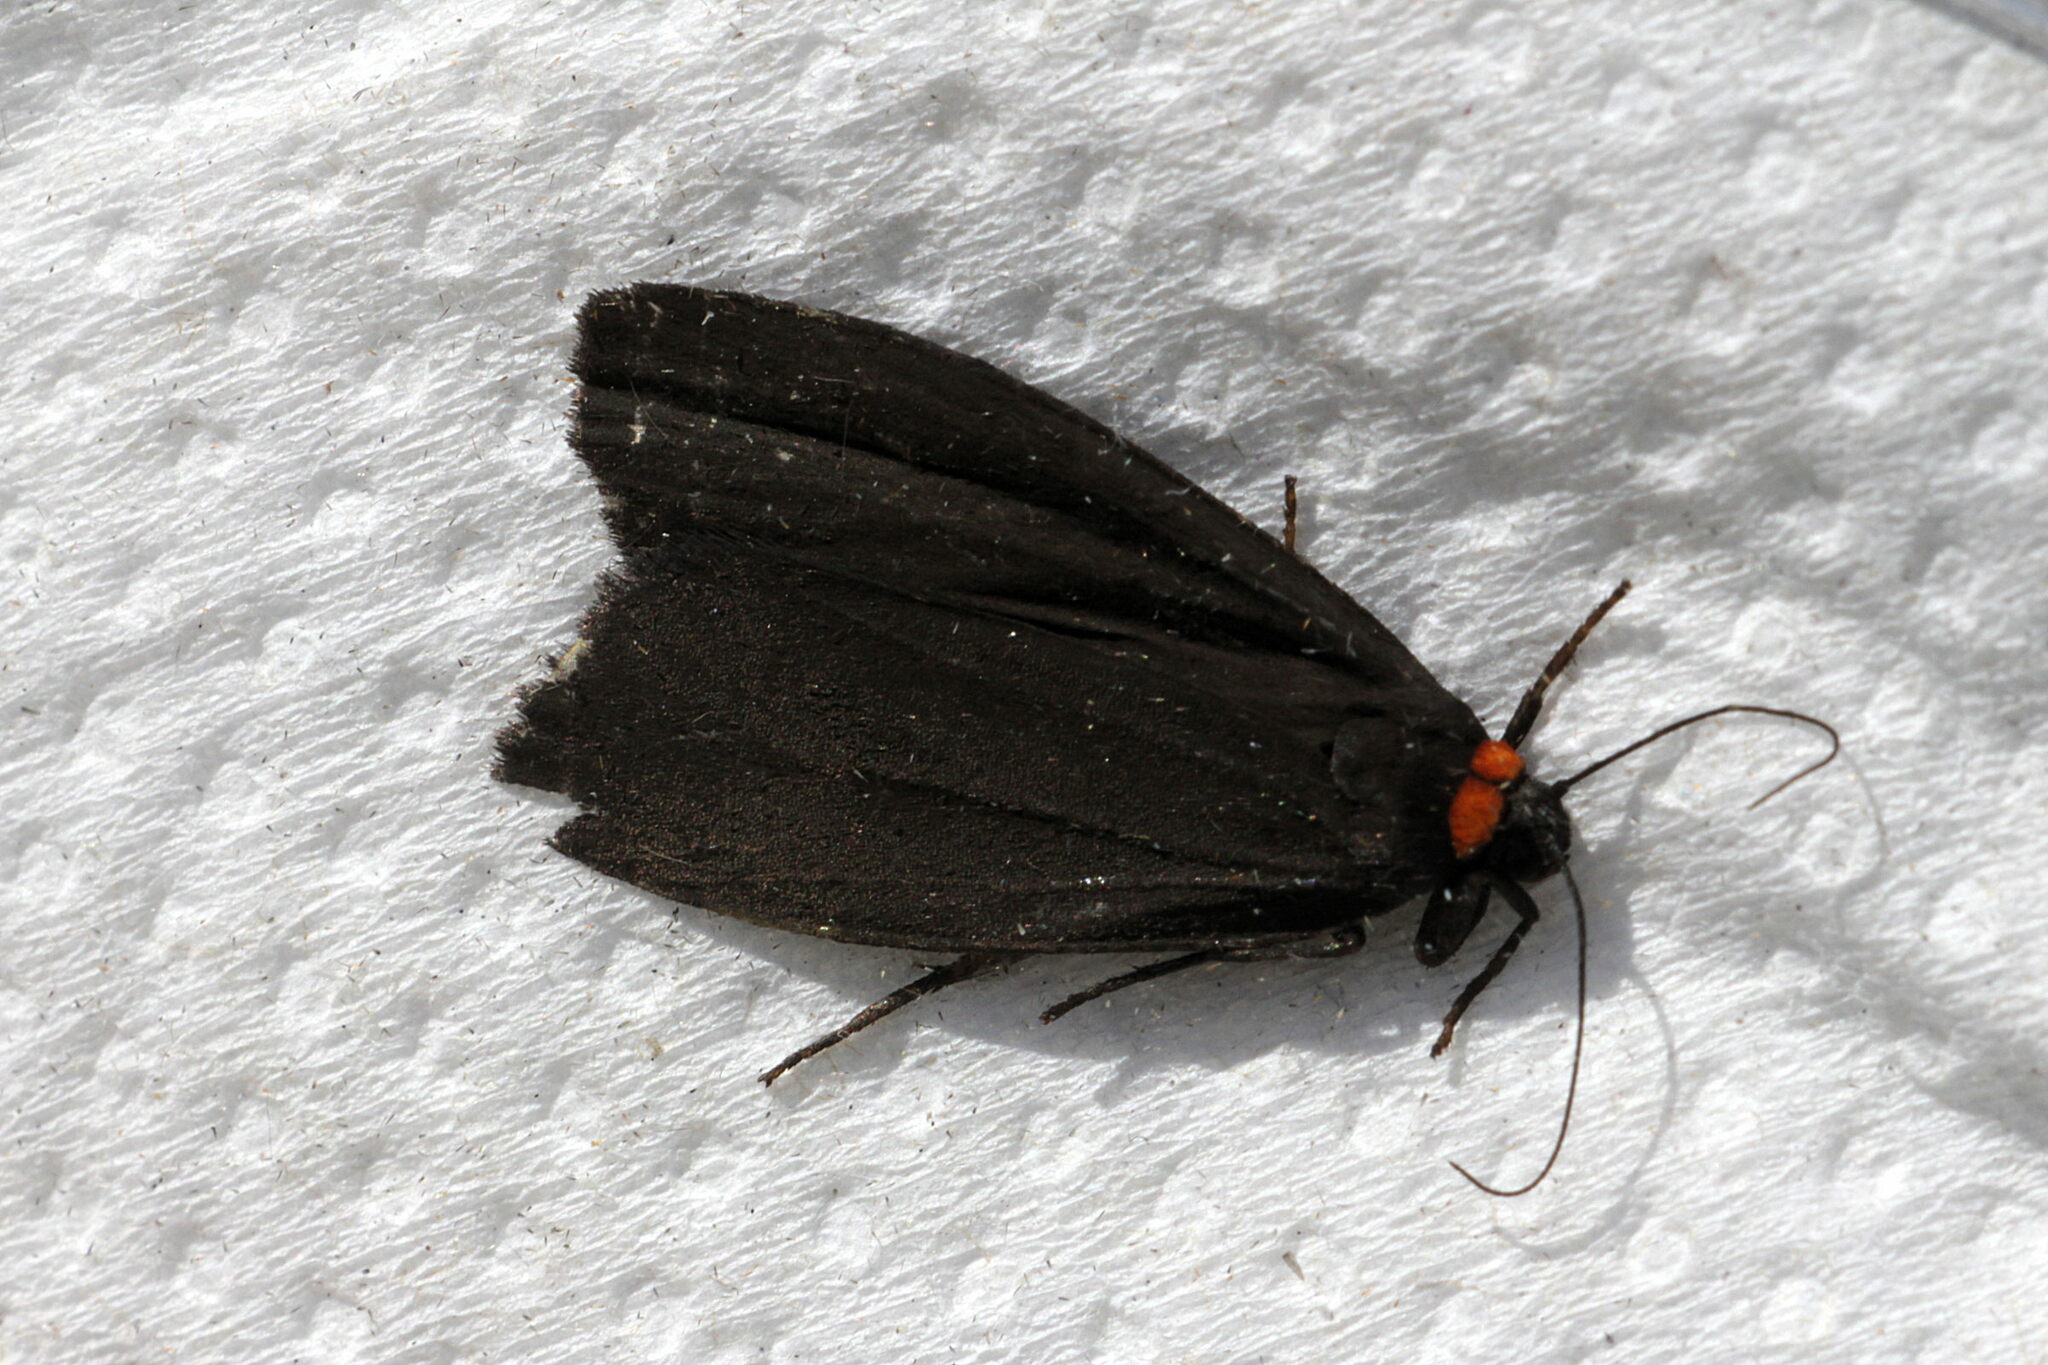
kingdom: Animalia
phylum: Arthropoda
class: Insecta
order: Lepidoptera
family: Erebidae
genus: Atolmis
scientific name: Atolmis rubricollis
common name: Red-necked footman
